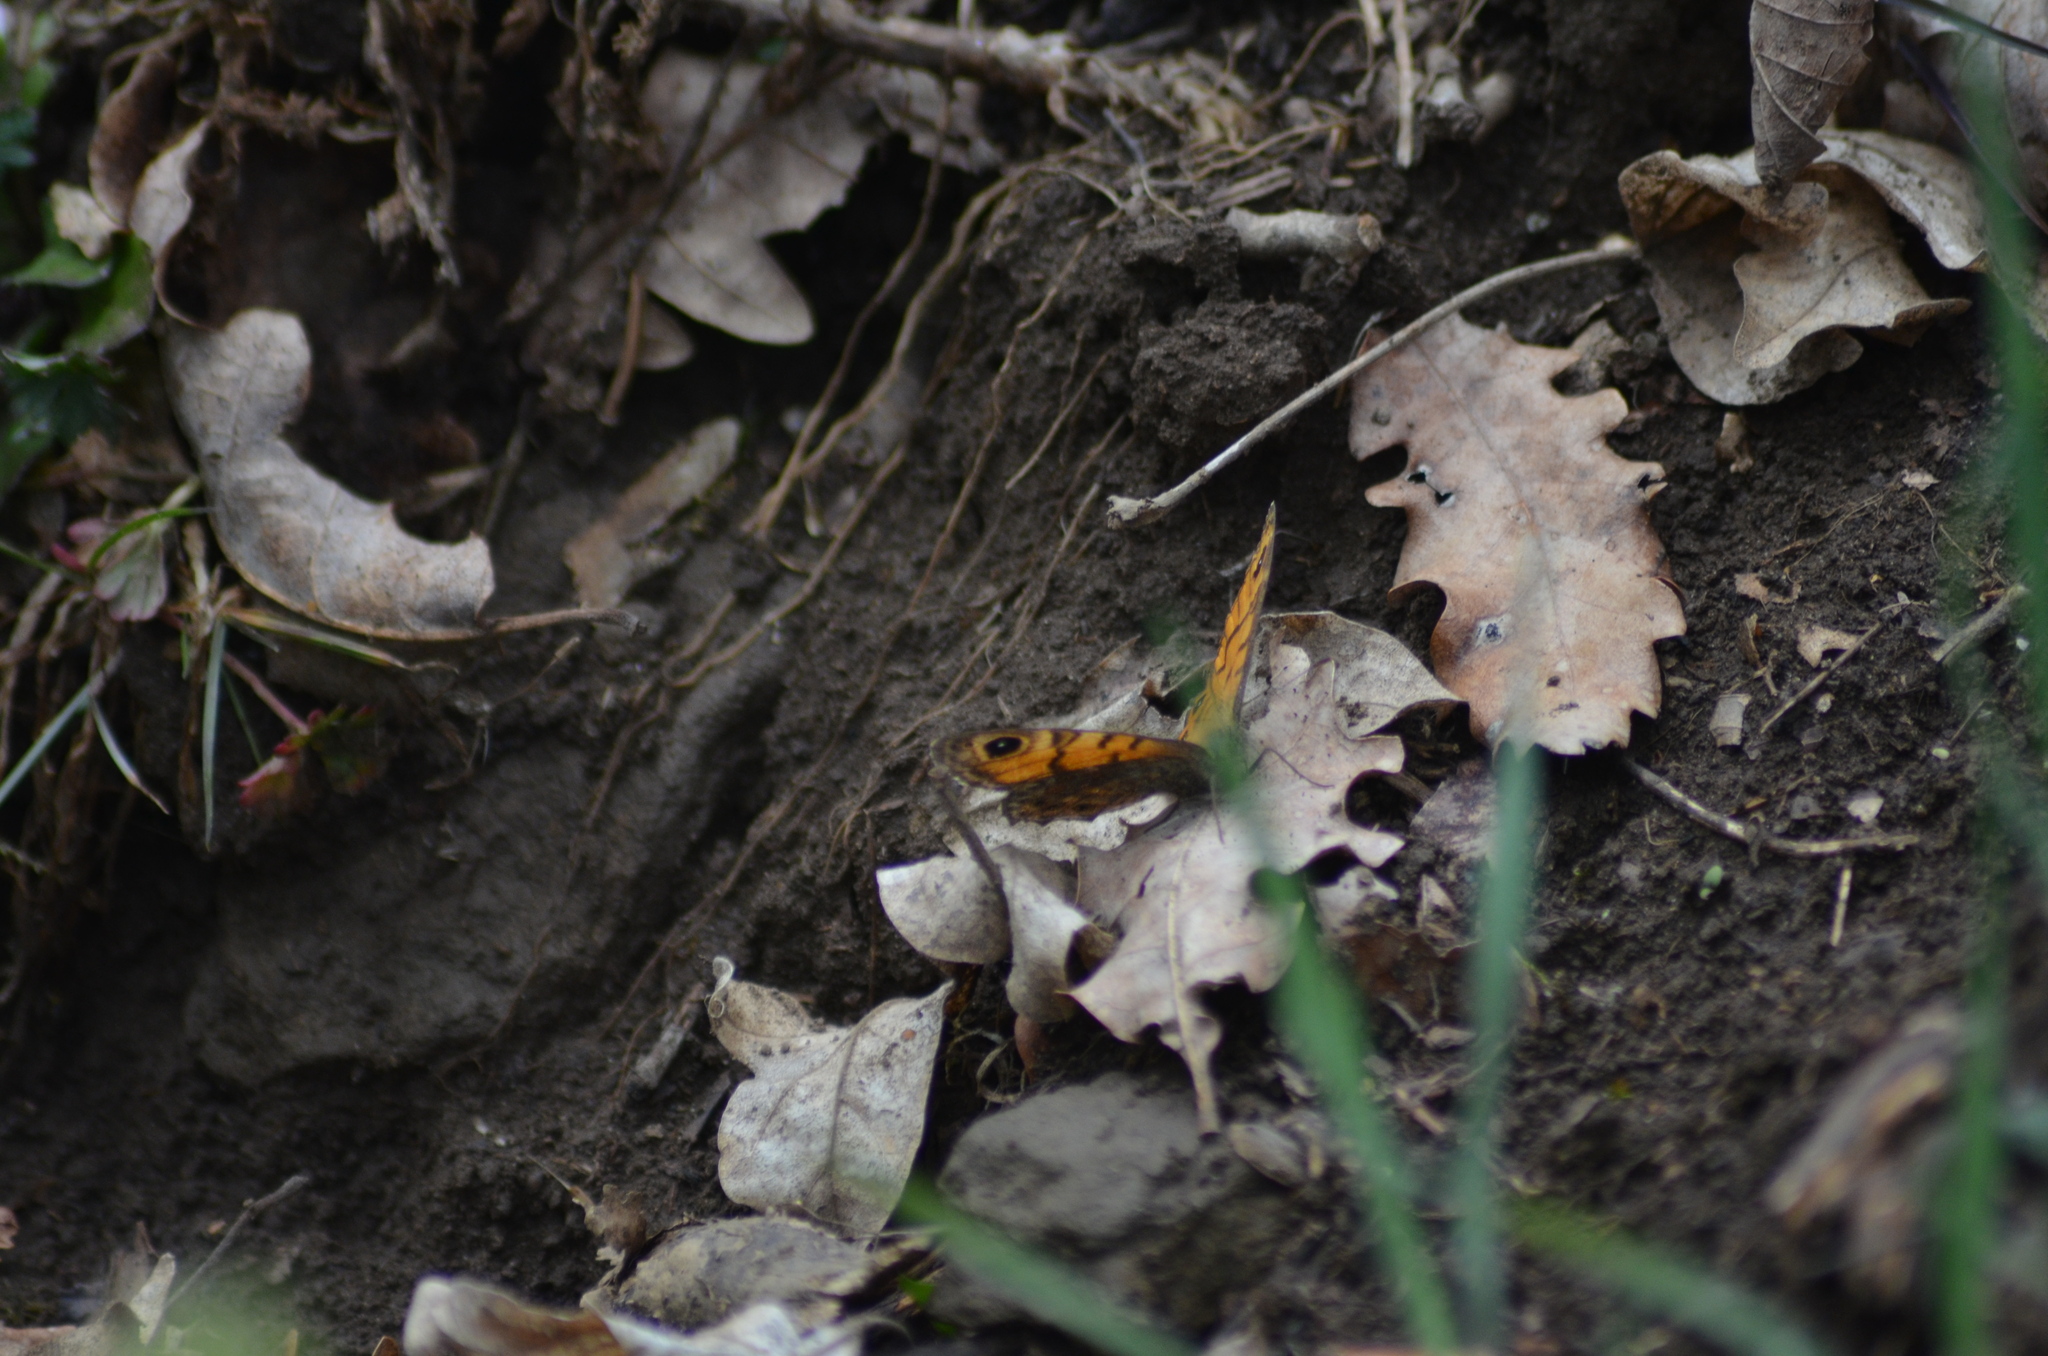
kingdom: Animalia
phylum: Arthropoda
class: Insecta
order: Lepidoptera
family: Nymphalidae
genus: Pararge
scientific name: Pararge Lasiommata megera
